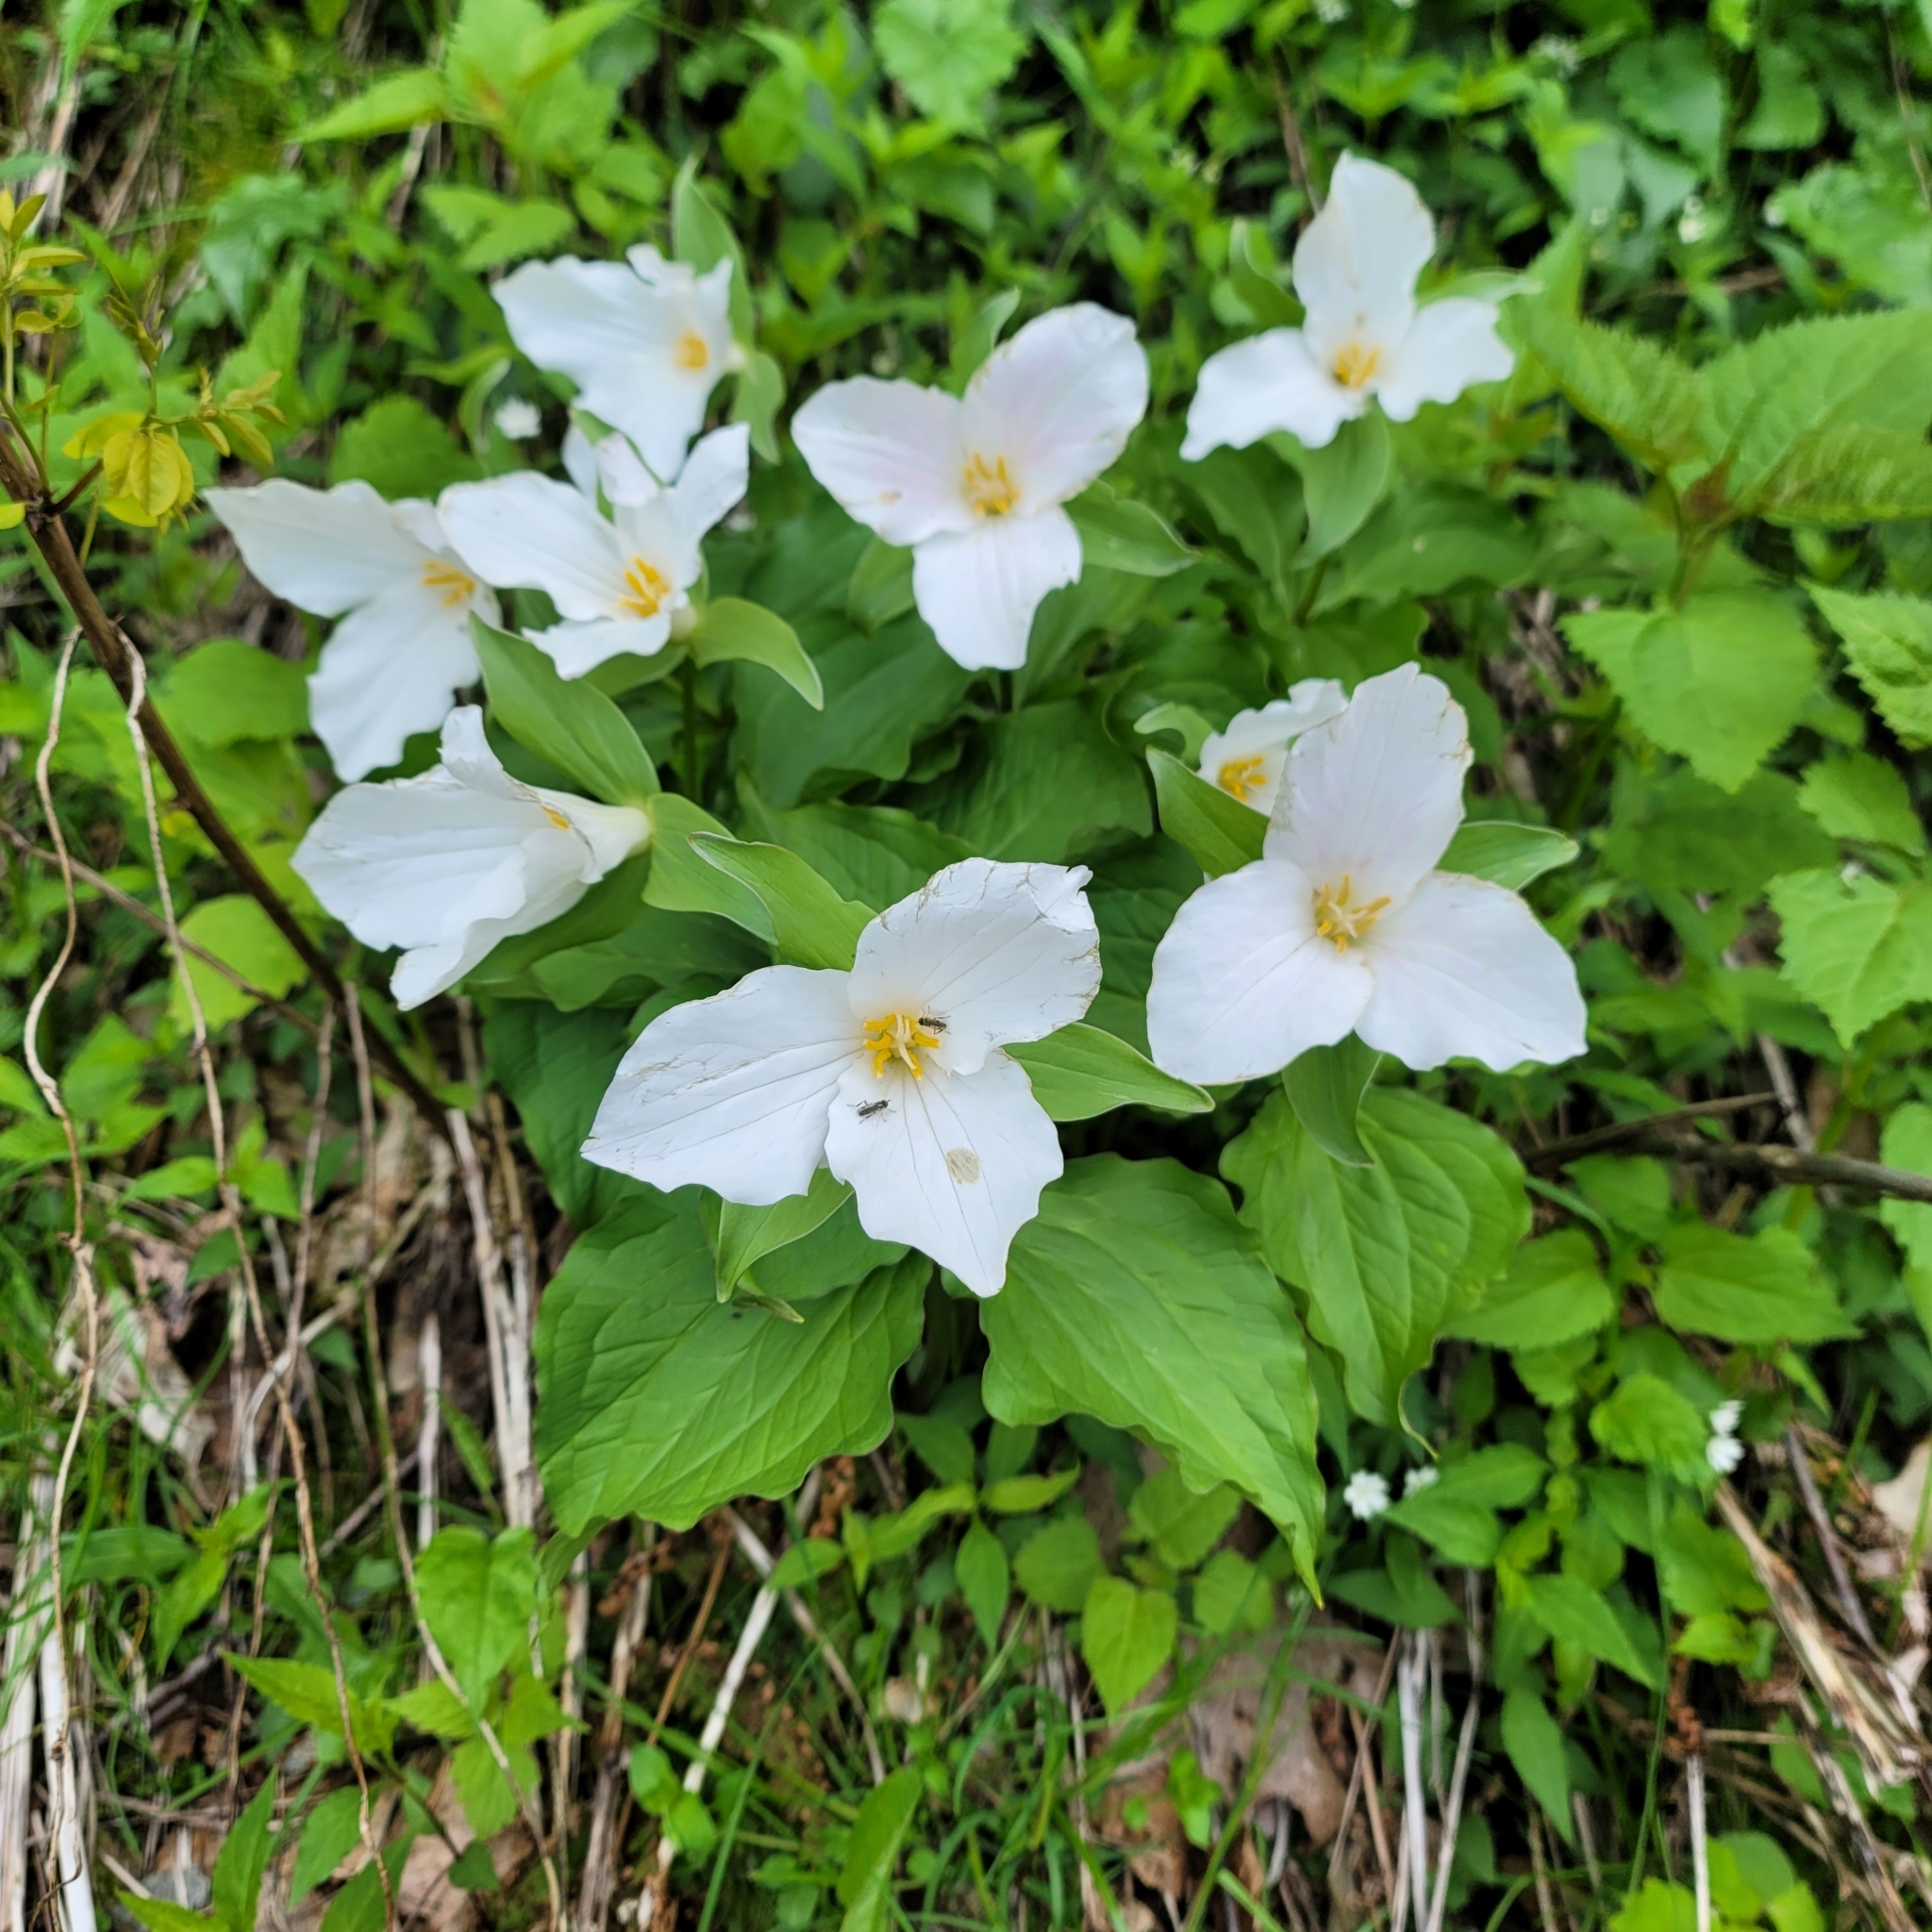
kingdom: Plantae
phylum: Tracheophyta
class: Liliopsida
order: Liliales
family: Melanthiaceae
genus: Trillium
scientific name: Trillium grandiflorum
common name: Great white trillium
